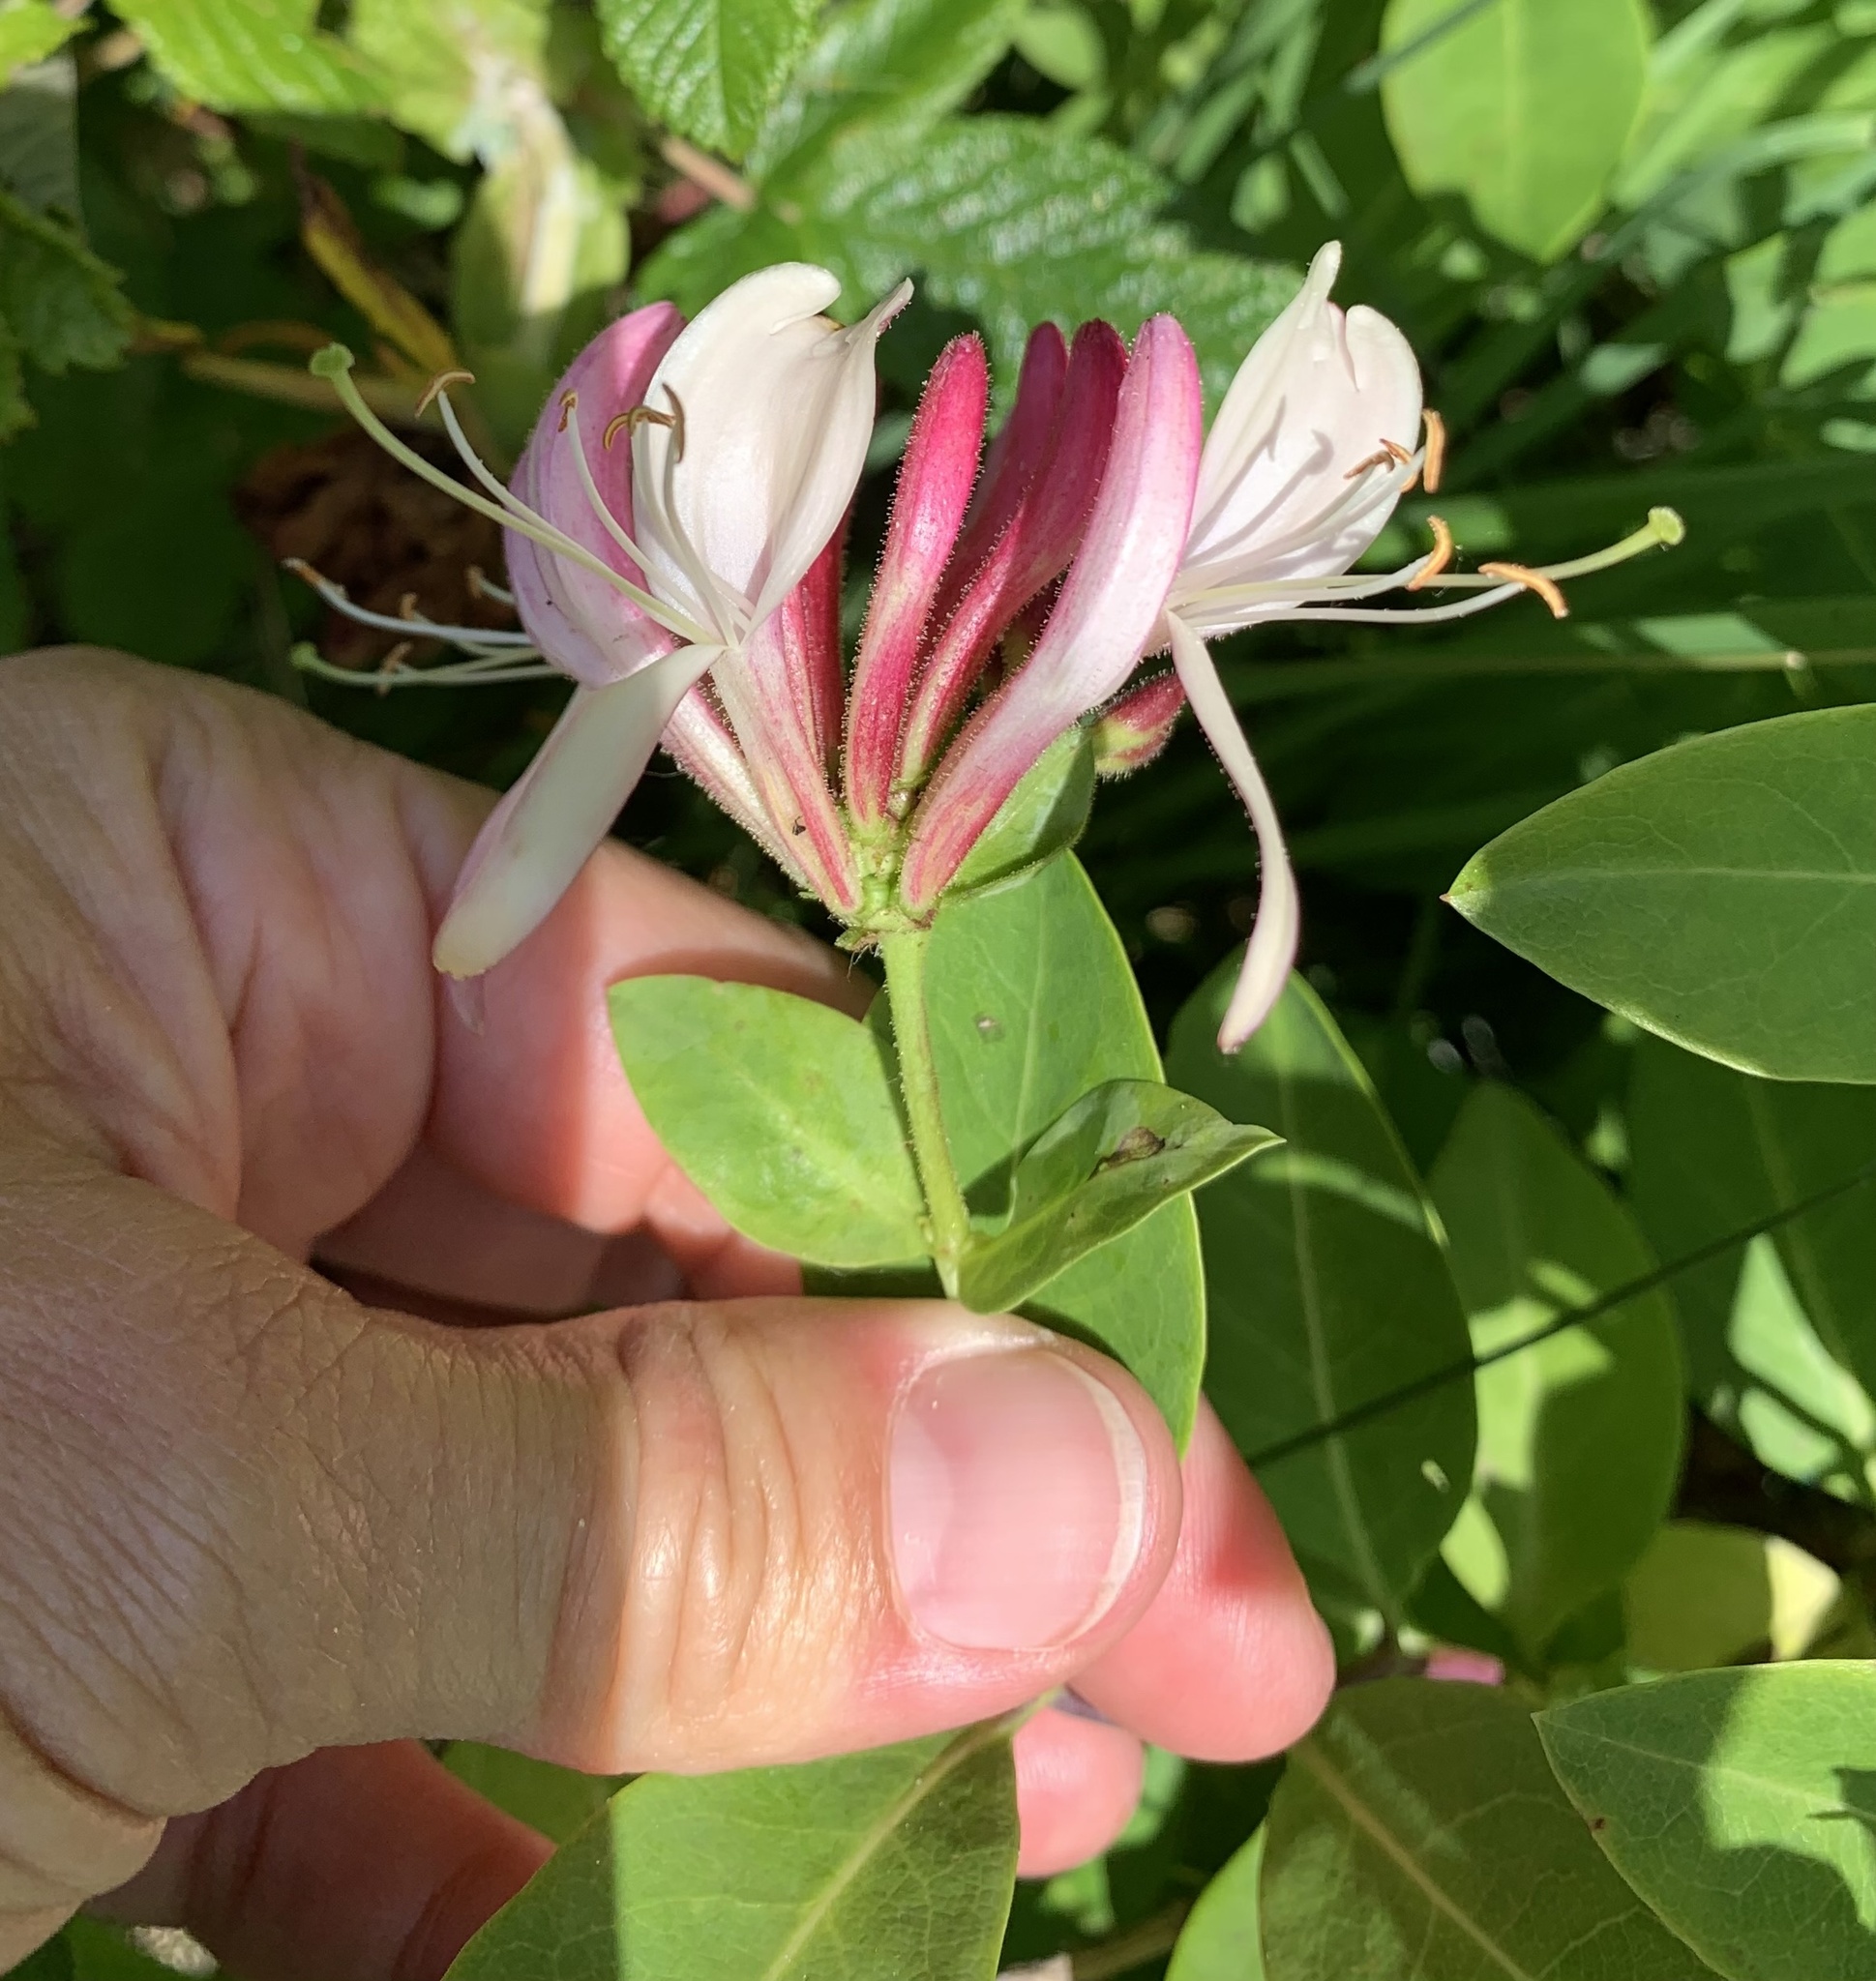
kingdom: Plantae
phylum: Tracheophyta
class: Magnoliopsida
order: Dipsacales
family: Caprifoliaceae
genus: Lonicera
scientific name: Lonicera periclymenum
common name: European honeysuckle
